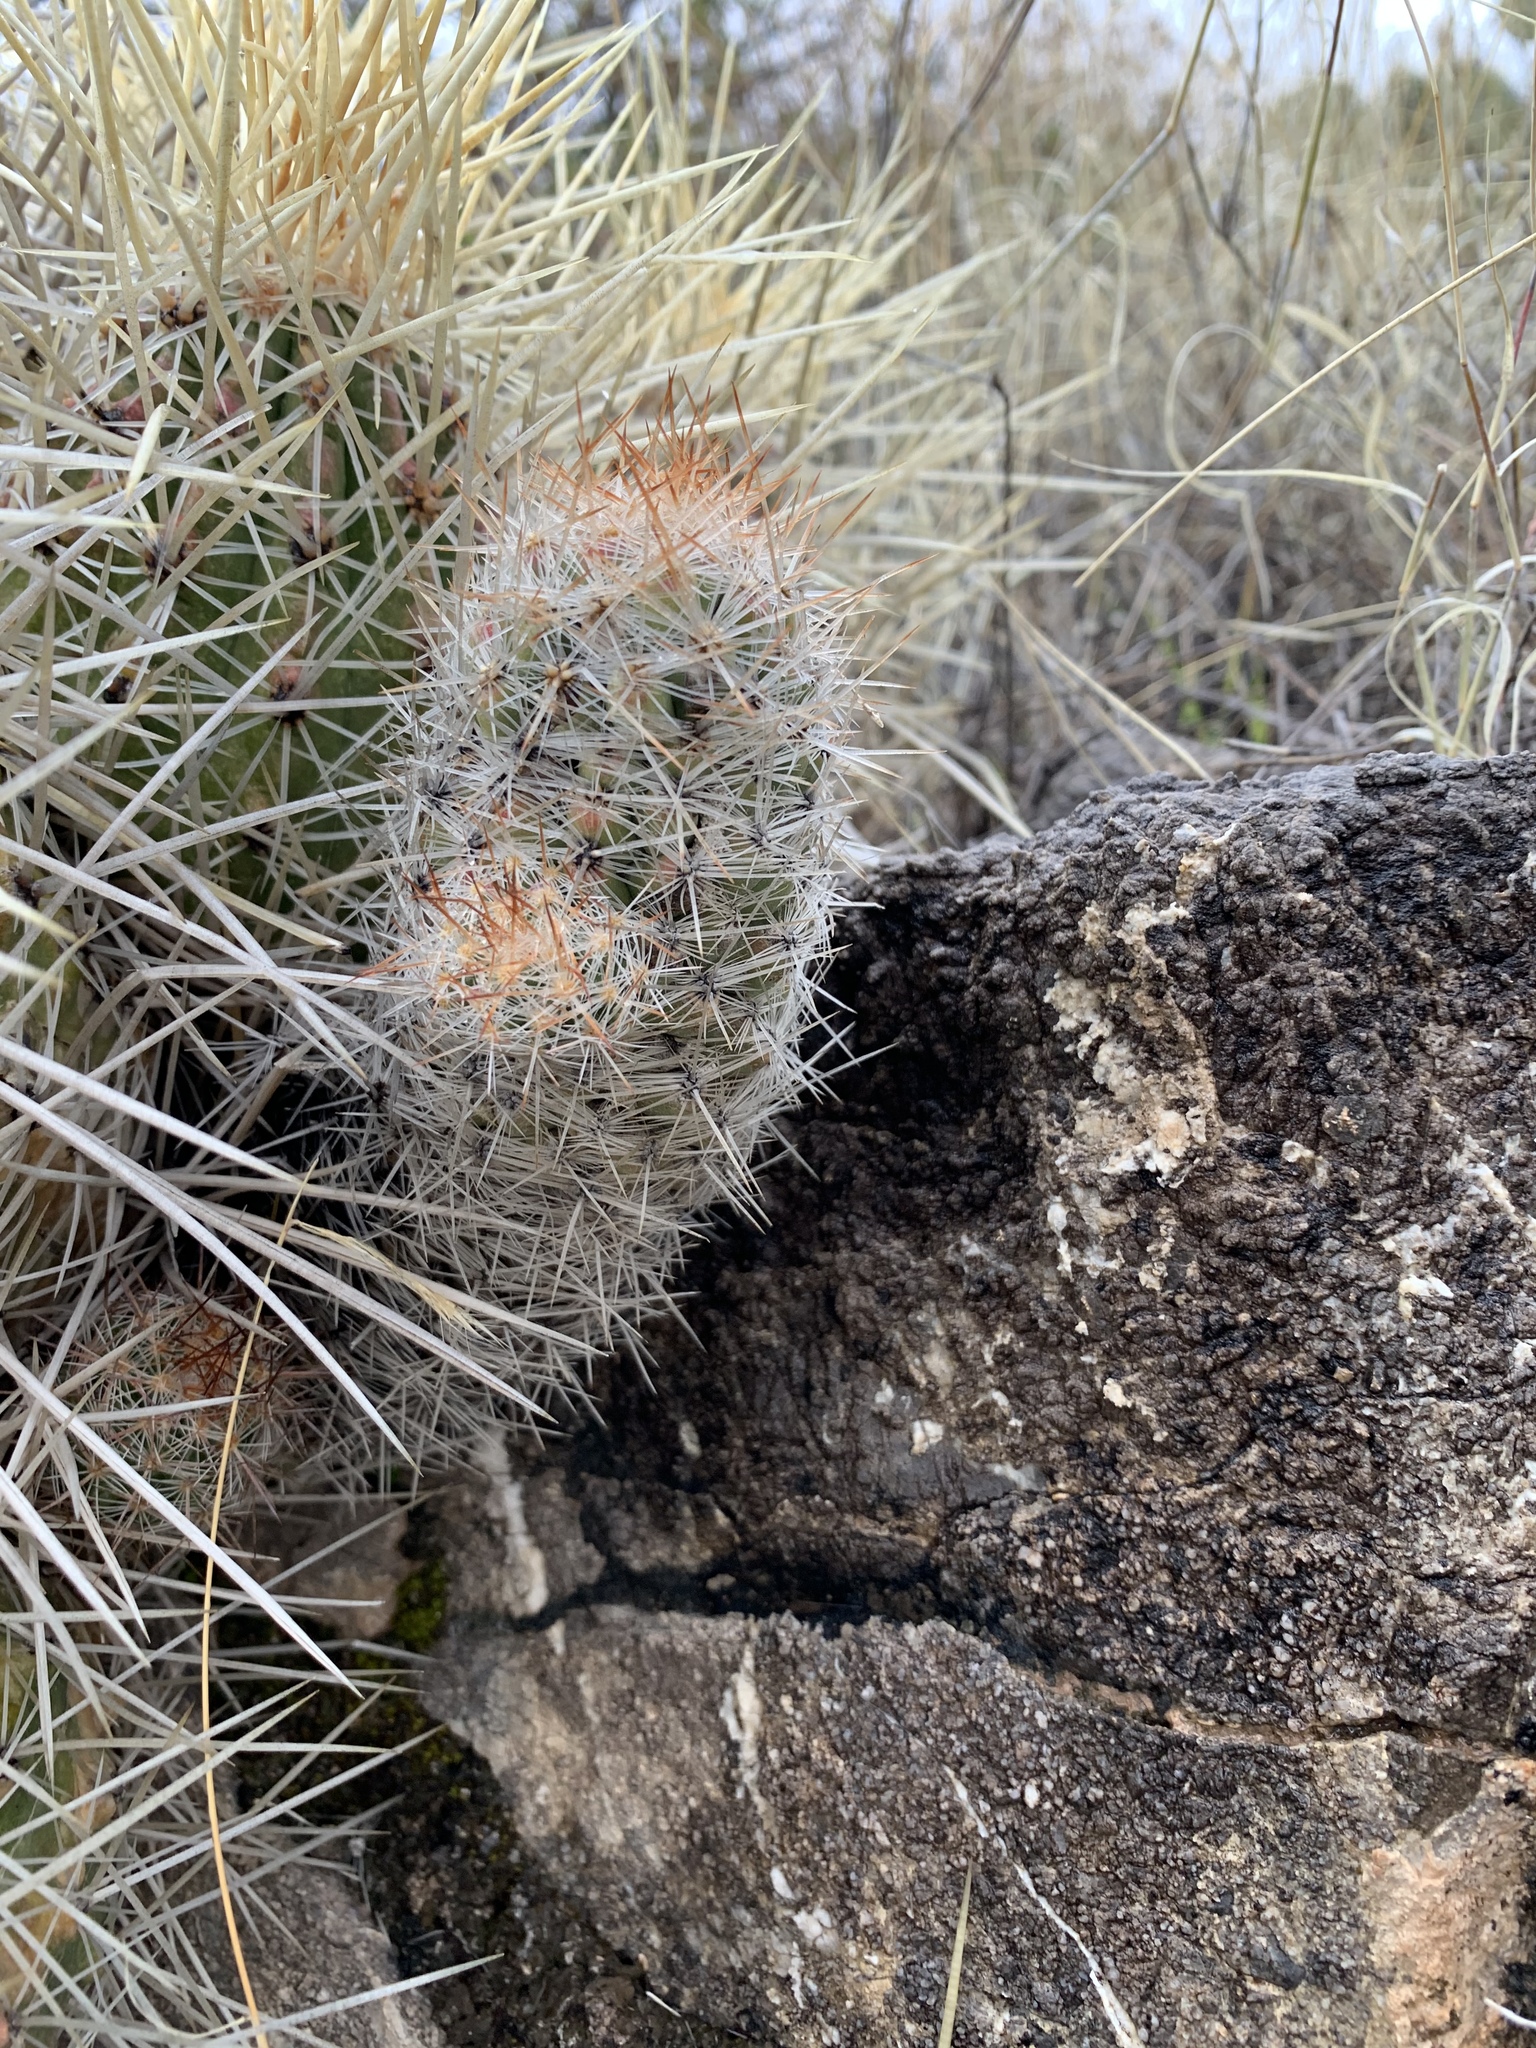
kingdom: Plantae
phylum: Tracheophyta
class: Magnoliopsida
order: Caryophyllales
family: Cactaceae
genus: Pelecyphora
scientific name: Pelecyphora tuberculosa
